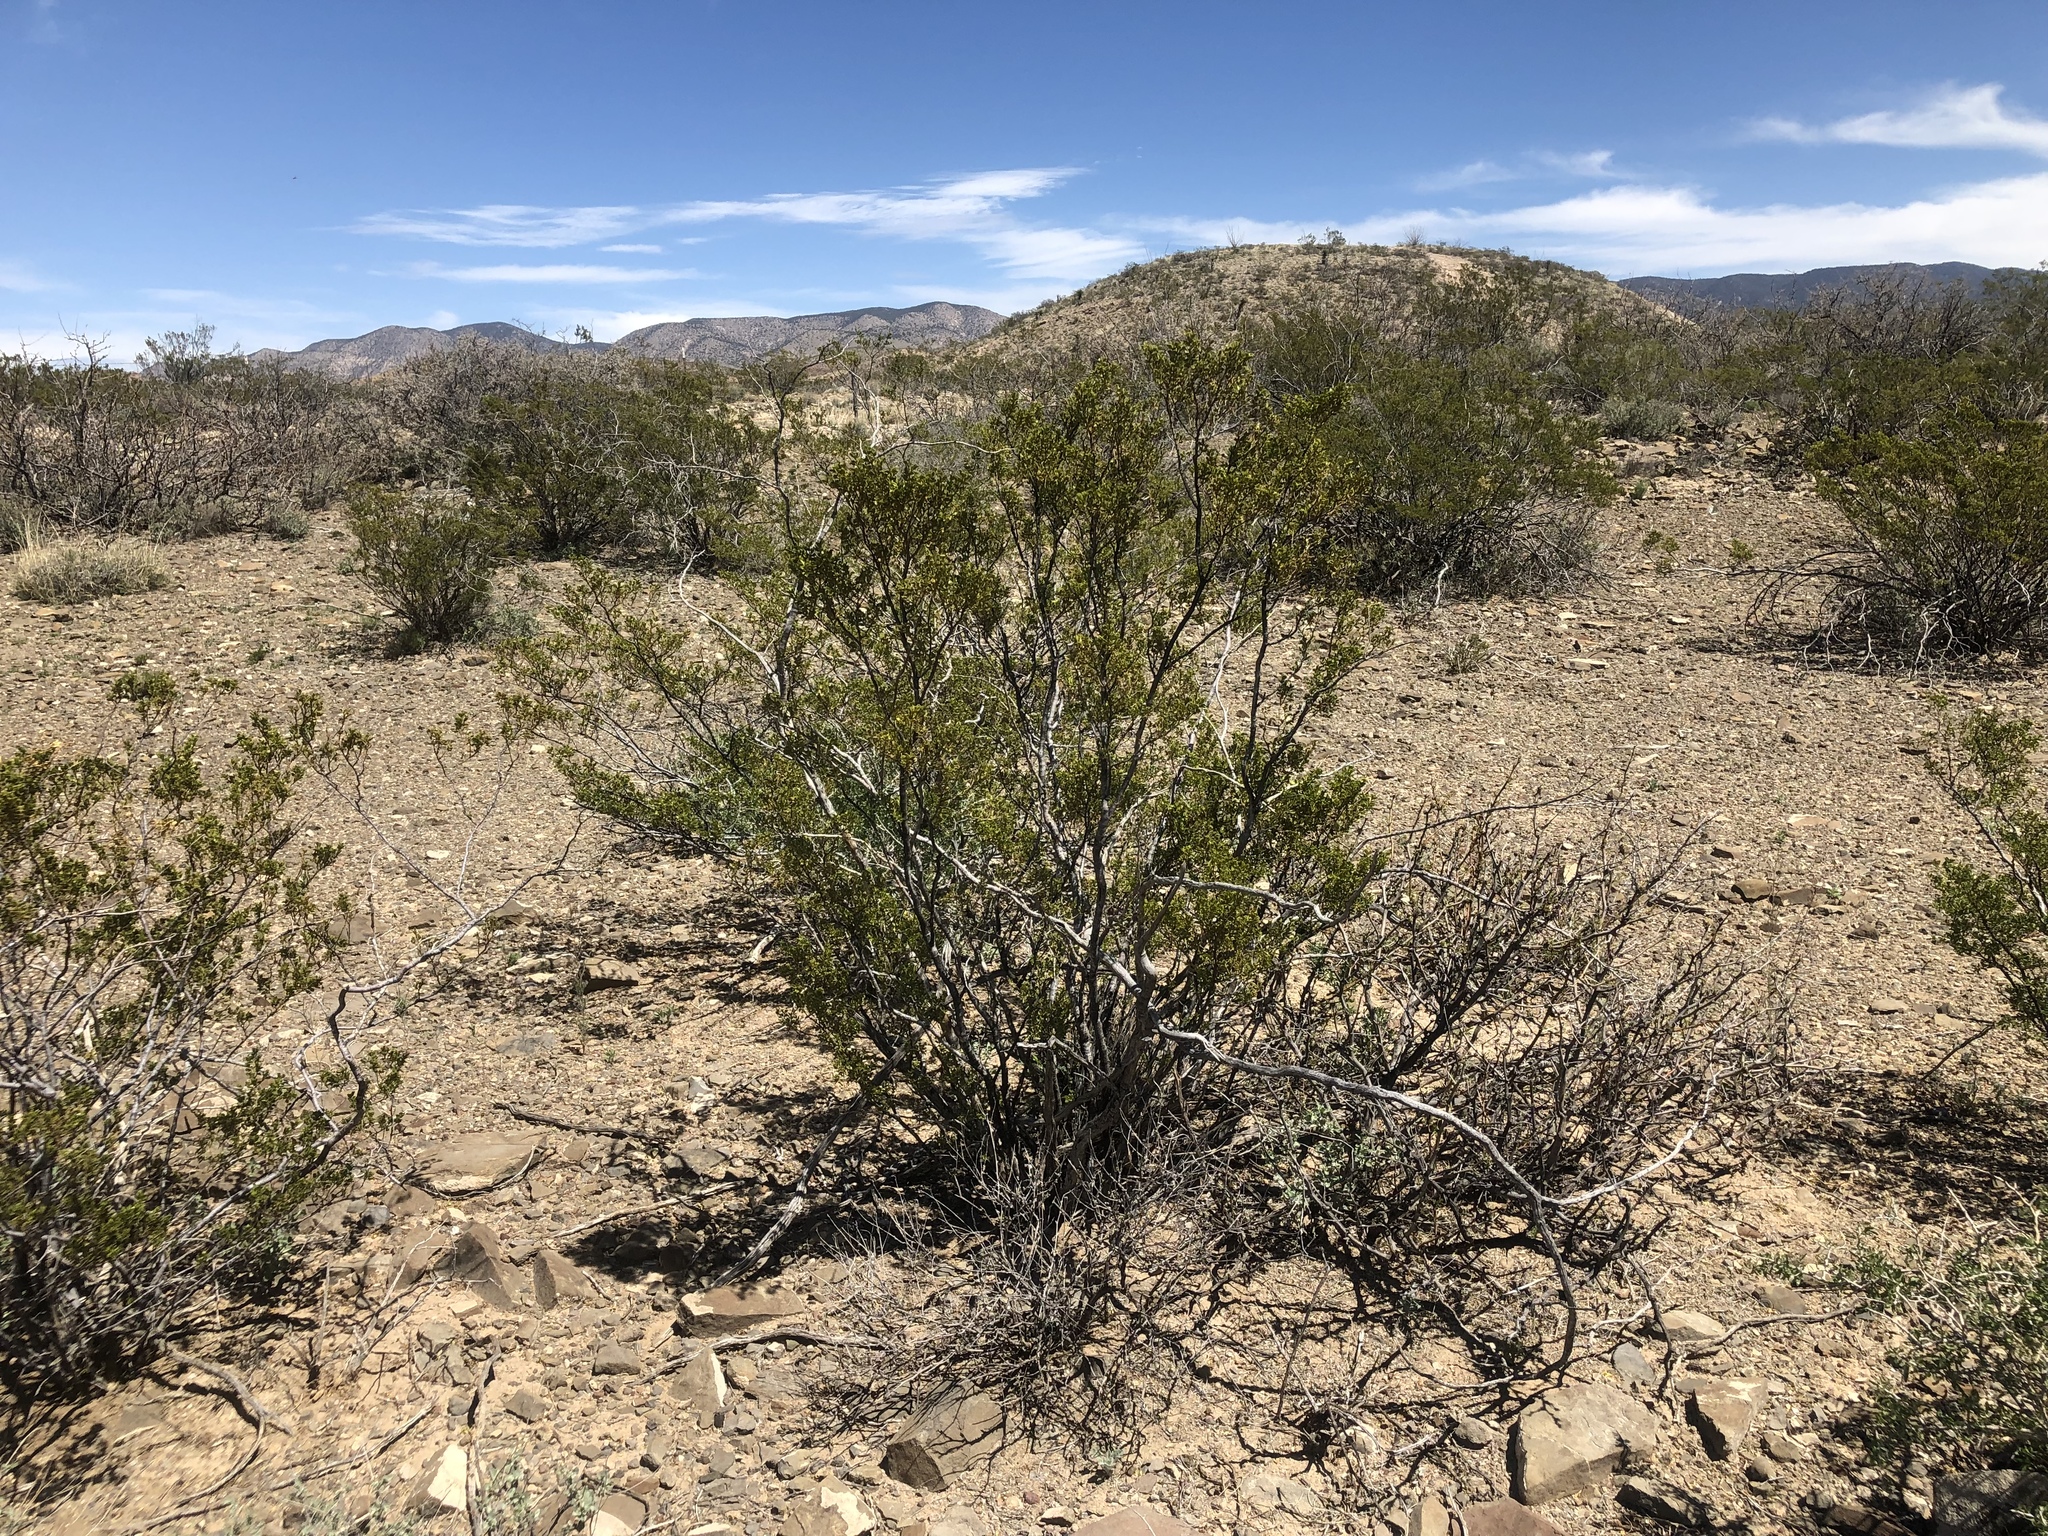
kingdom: Plantae
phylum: Tracheophyta
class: Magnoliopsida
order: Zygophyllales
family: Zygophyllaceae
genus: Larrea
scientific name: Larrea tridentata
